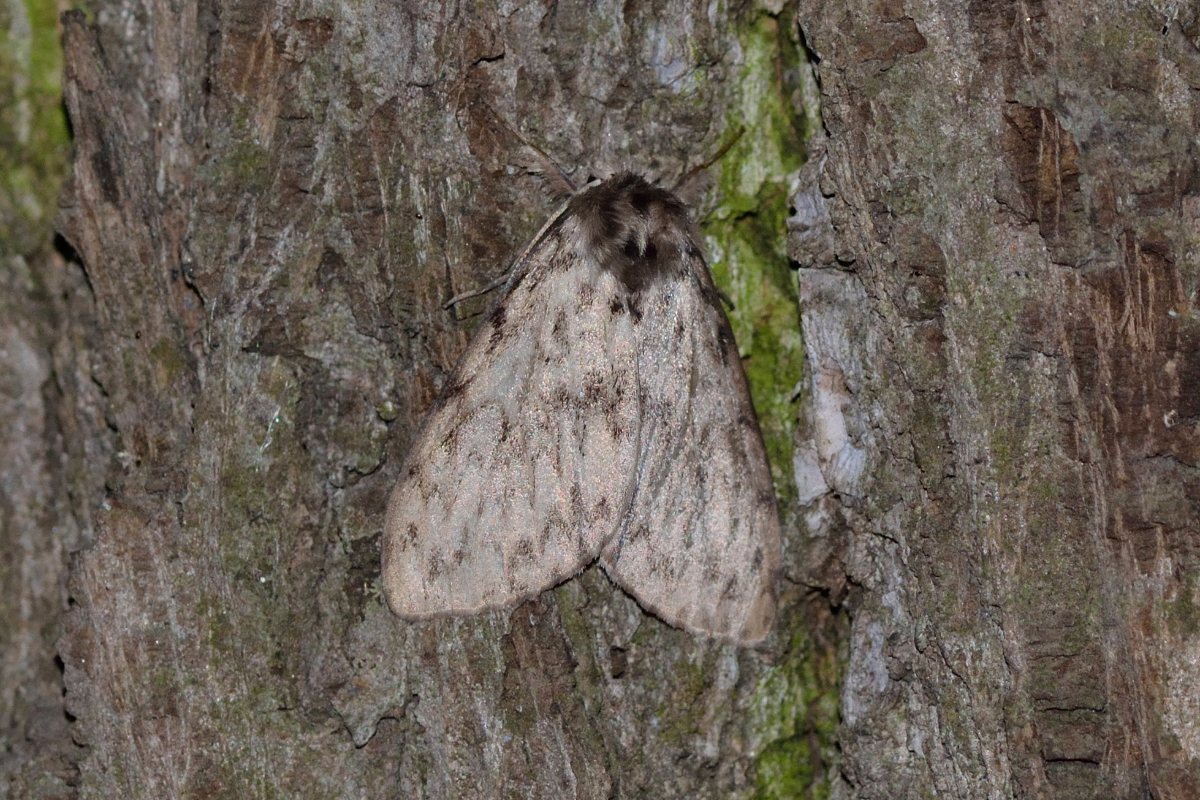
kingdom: Animalia
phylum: Arthropoda
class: Insecta
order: Lepidoptera
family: Erebidae
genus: Lymantria
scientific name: Lymantria monacha
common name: Black arches
